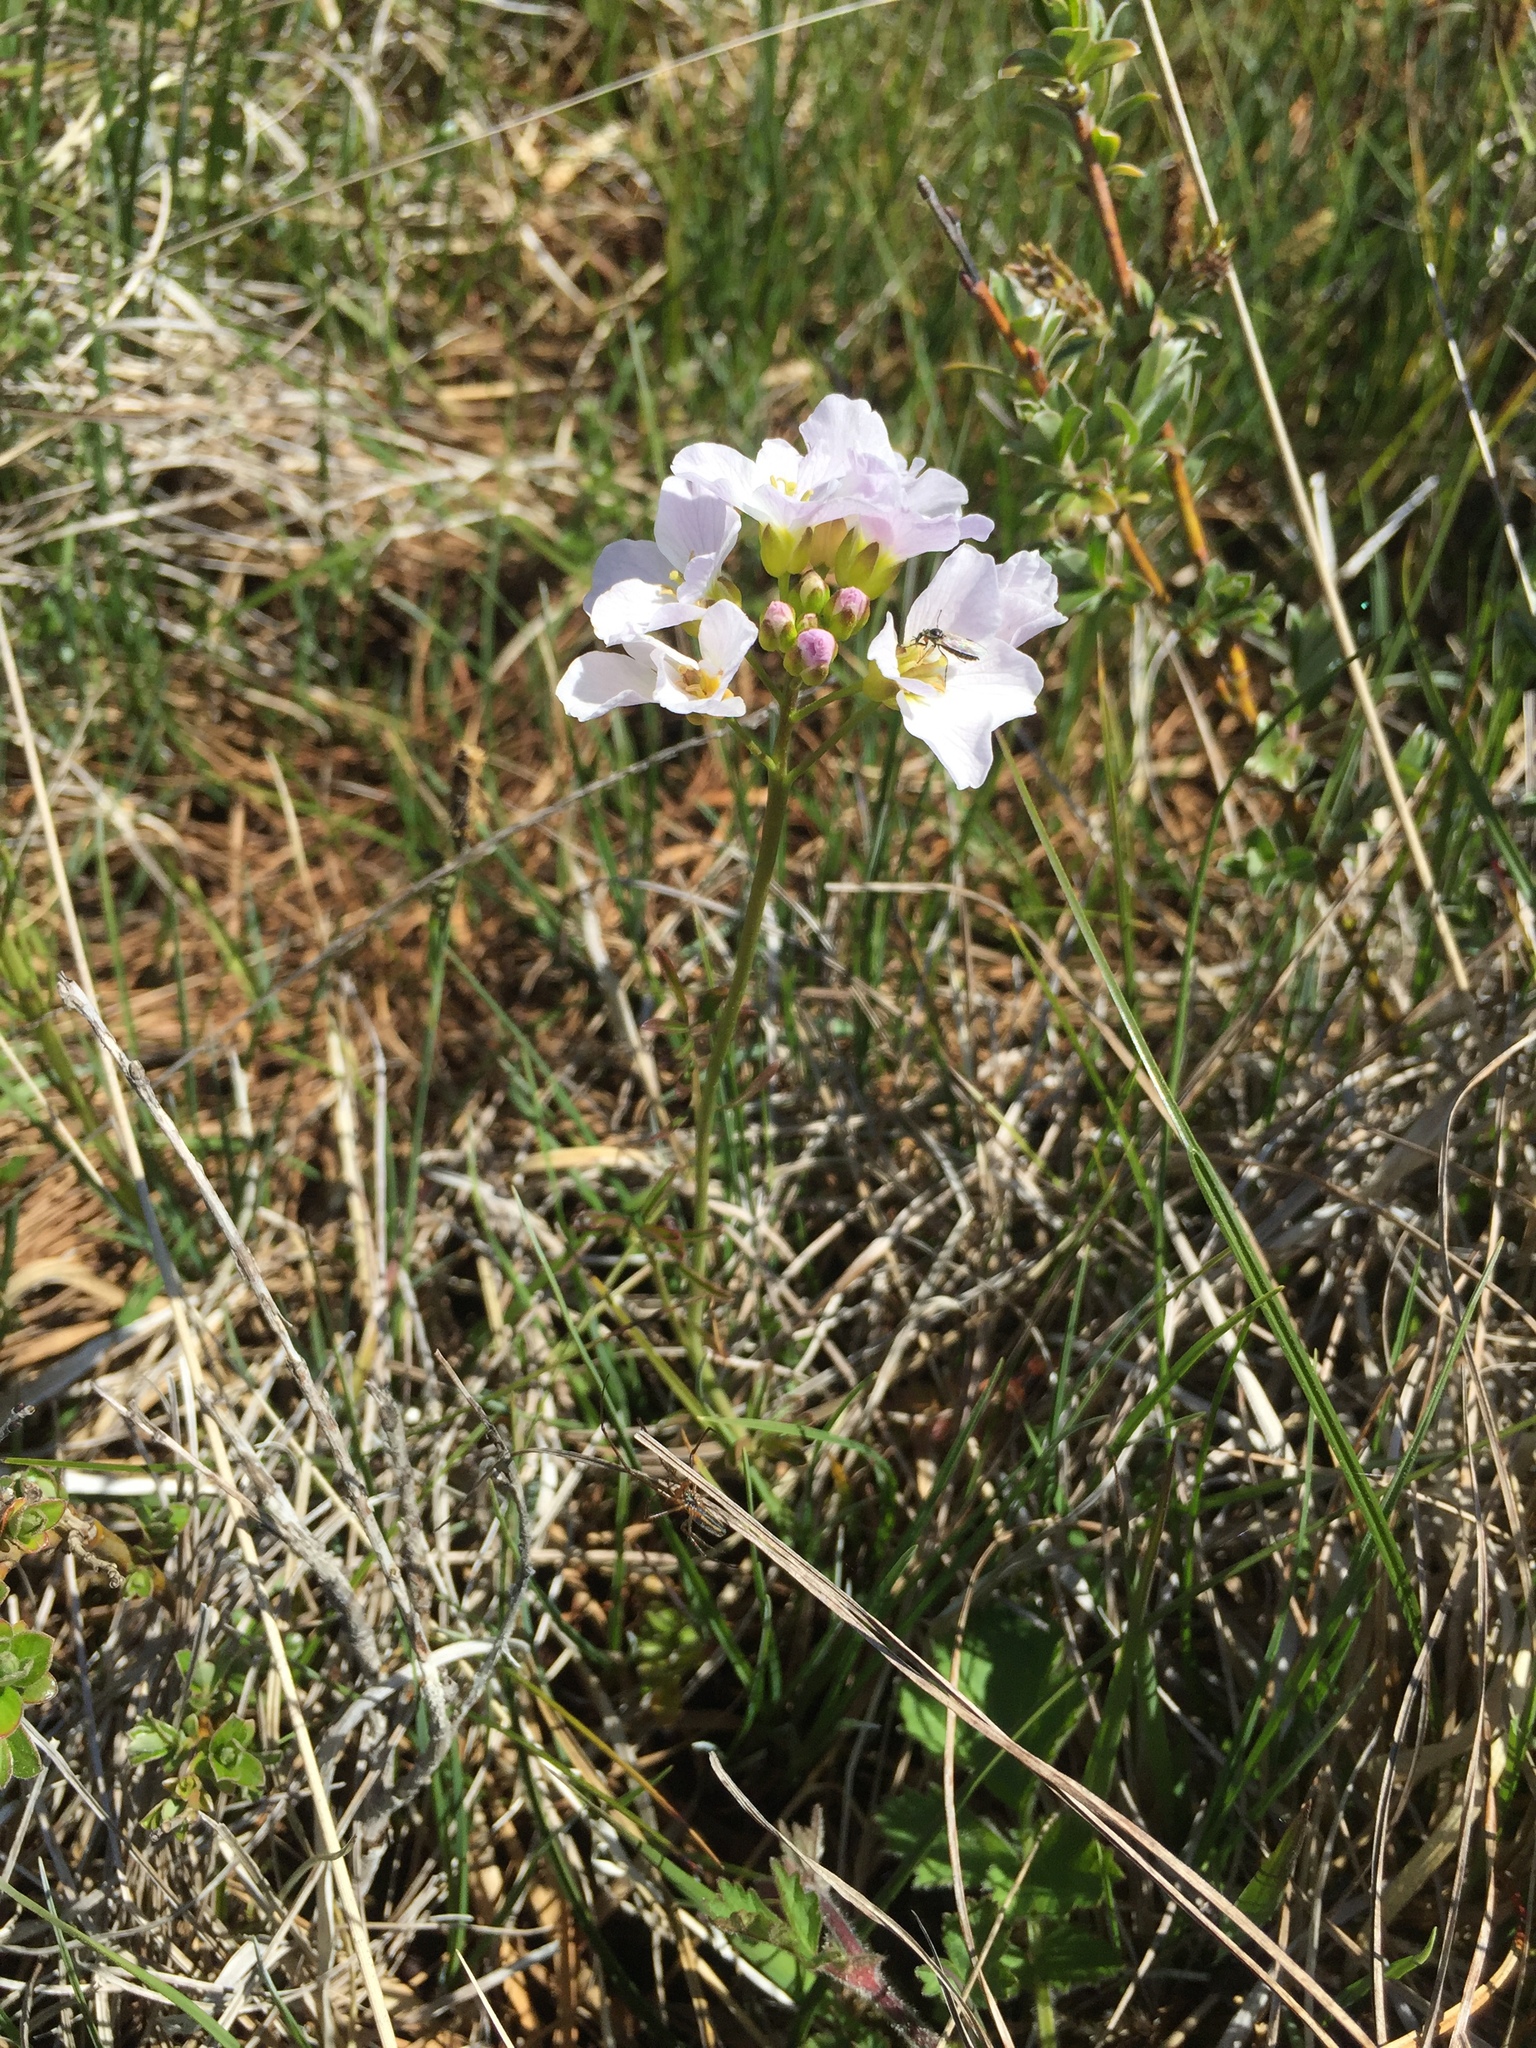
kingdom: Plantae
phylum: Tracheophyta
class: Magnoliopsida
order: Brassicales
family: Brassicaceae
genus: Cardamine
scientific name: Cardamine pratensis
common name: Cuckoo flower
